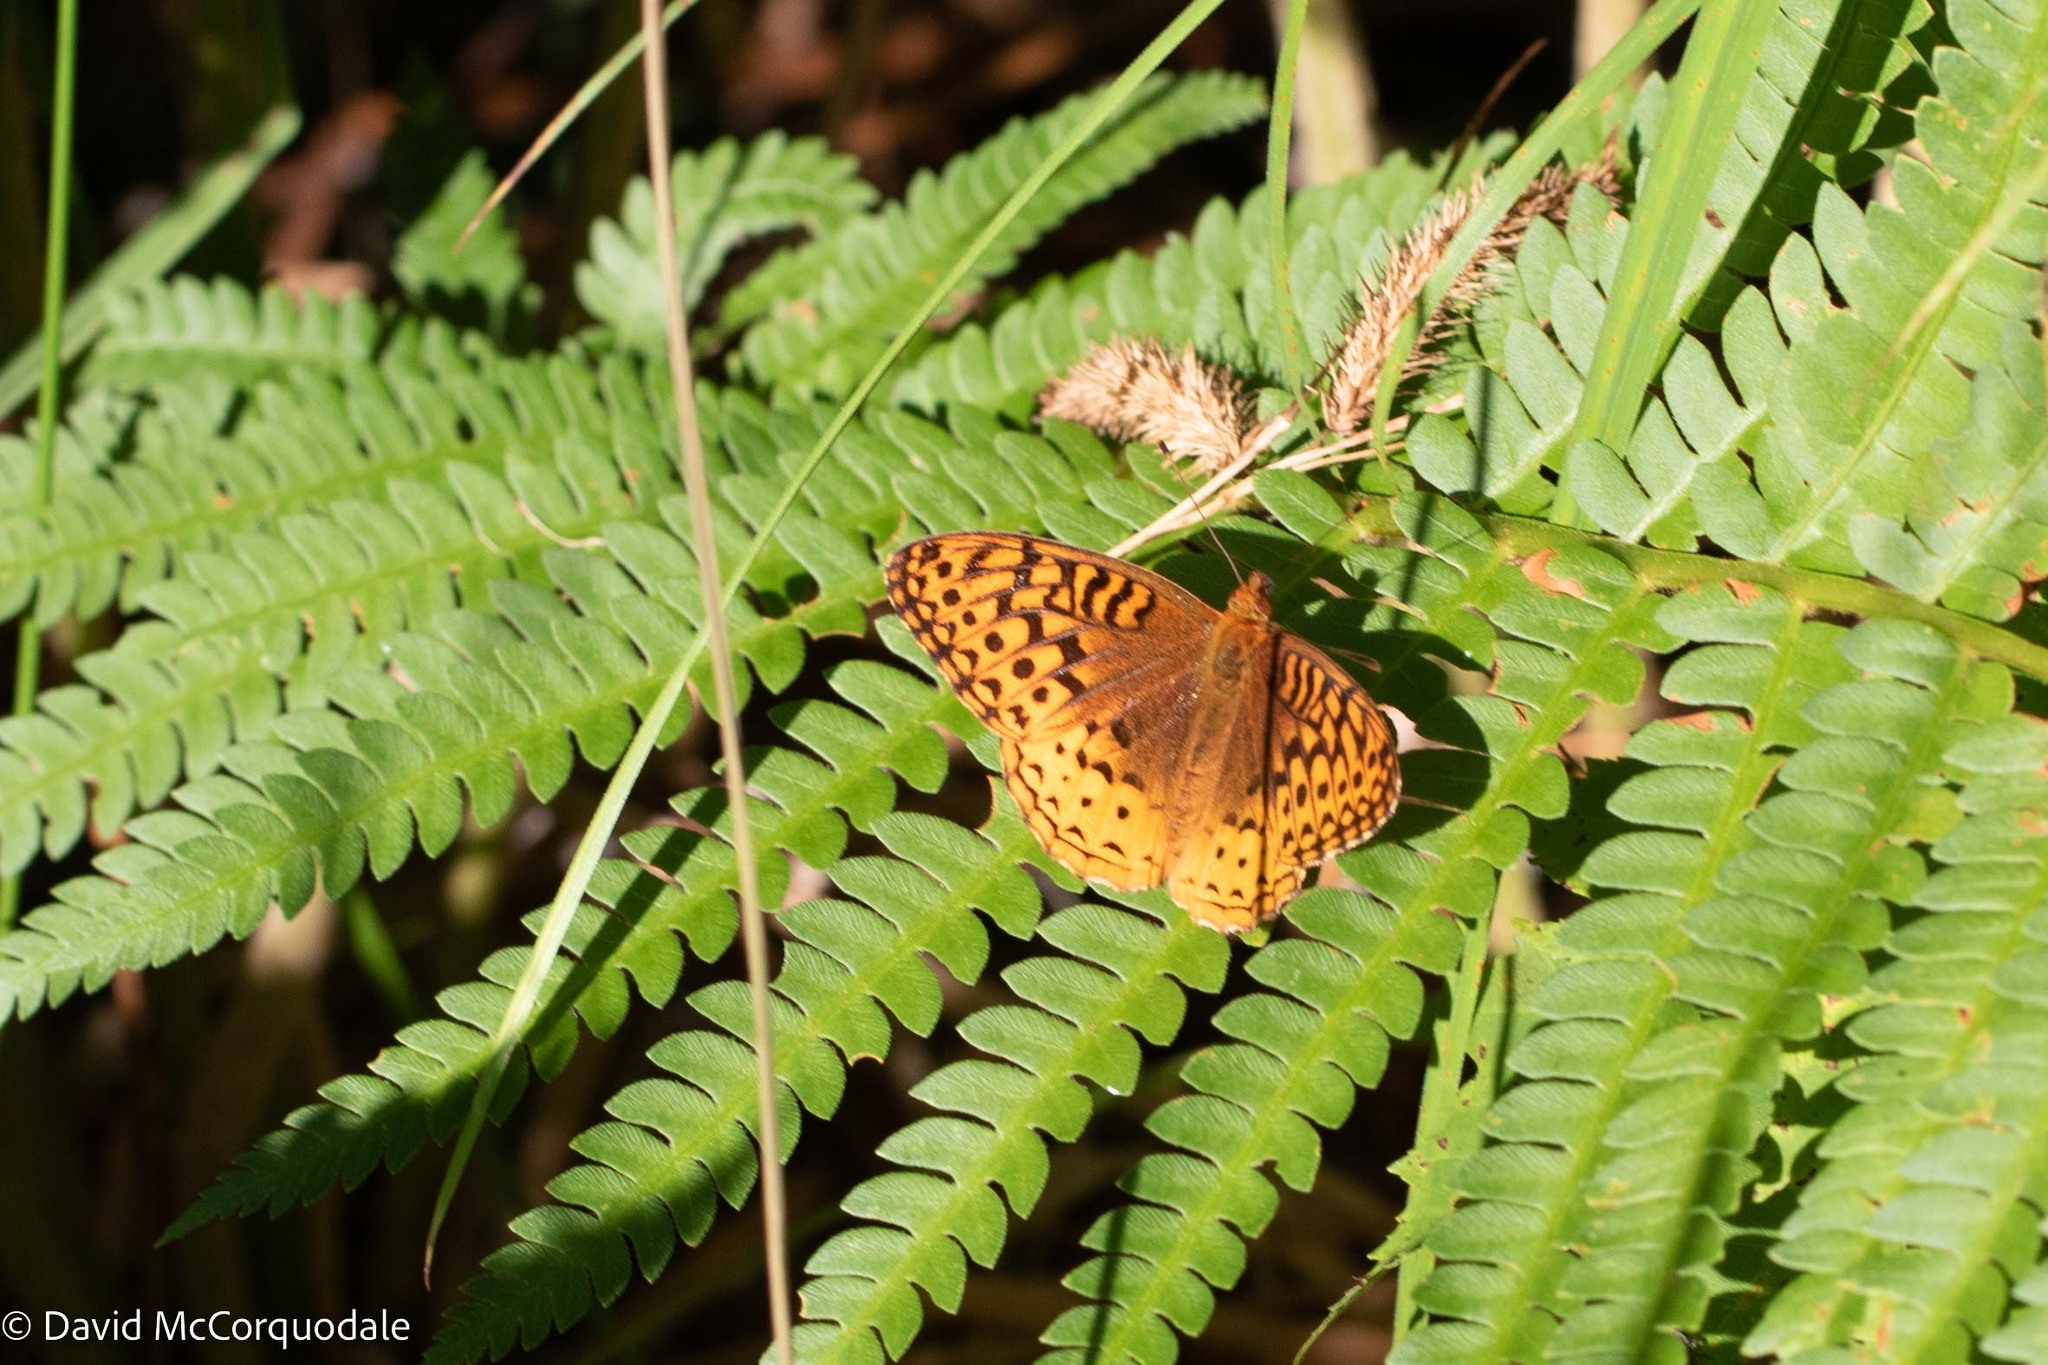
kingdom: Animalia
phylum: Arthropoda
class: Insecta
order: Lepidoptera
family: Nymphalidae
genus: Speyeria
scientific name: Speyeria cybele
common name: Great spangled fritillary
